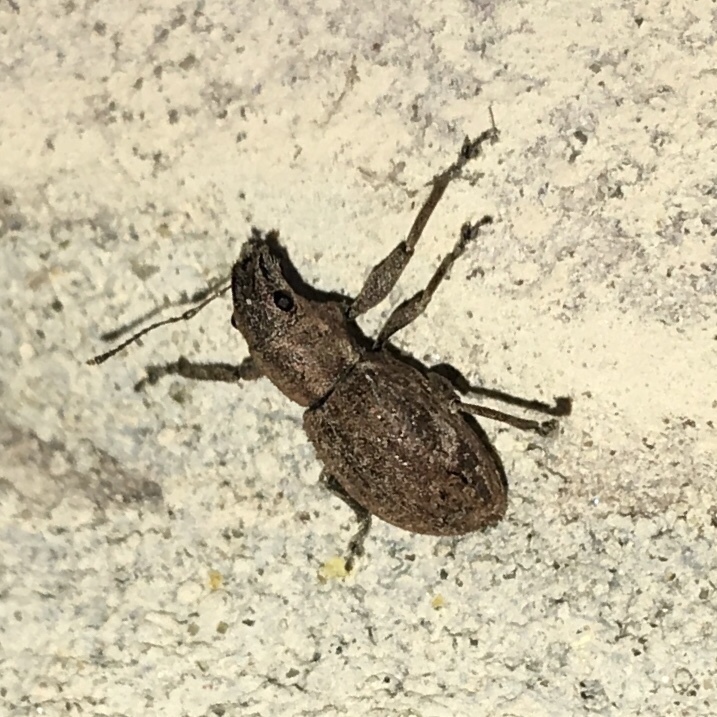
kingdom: Animalia
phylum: Arthropoda
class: Insecta
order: Coleoptera
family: Curculionidae
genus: Naupactus
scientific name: Naupactus cervinus
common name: Fuller rose beetle
